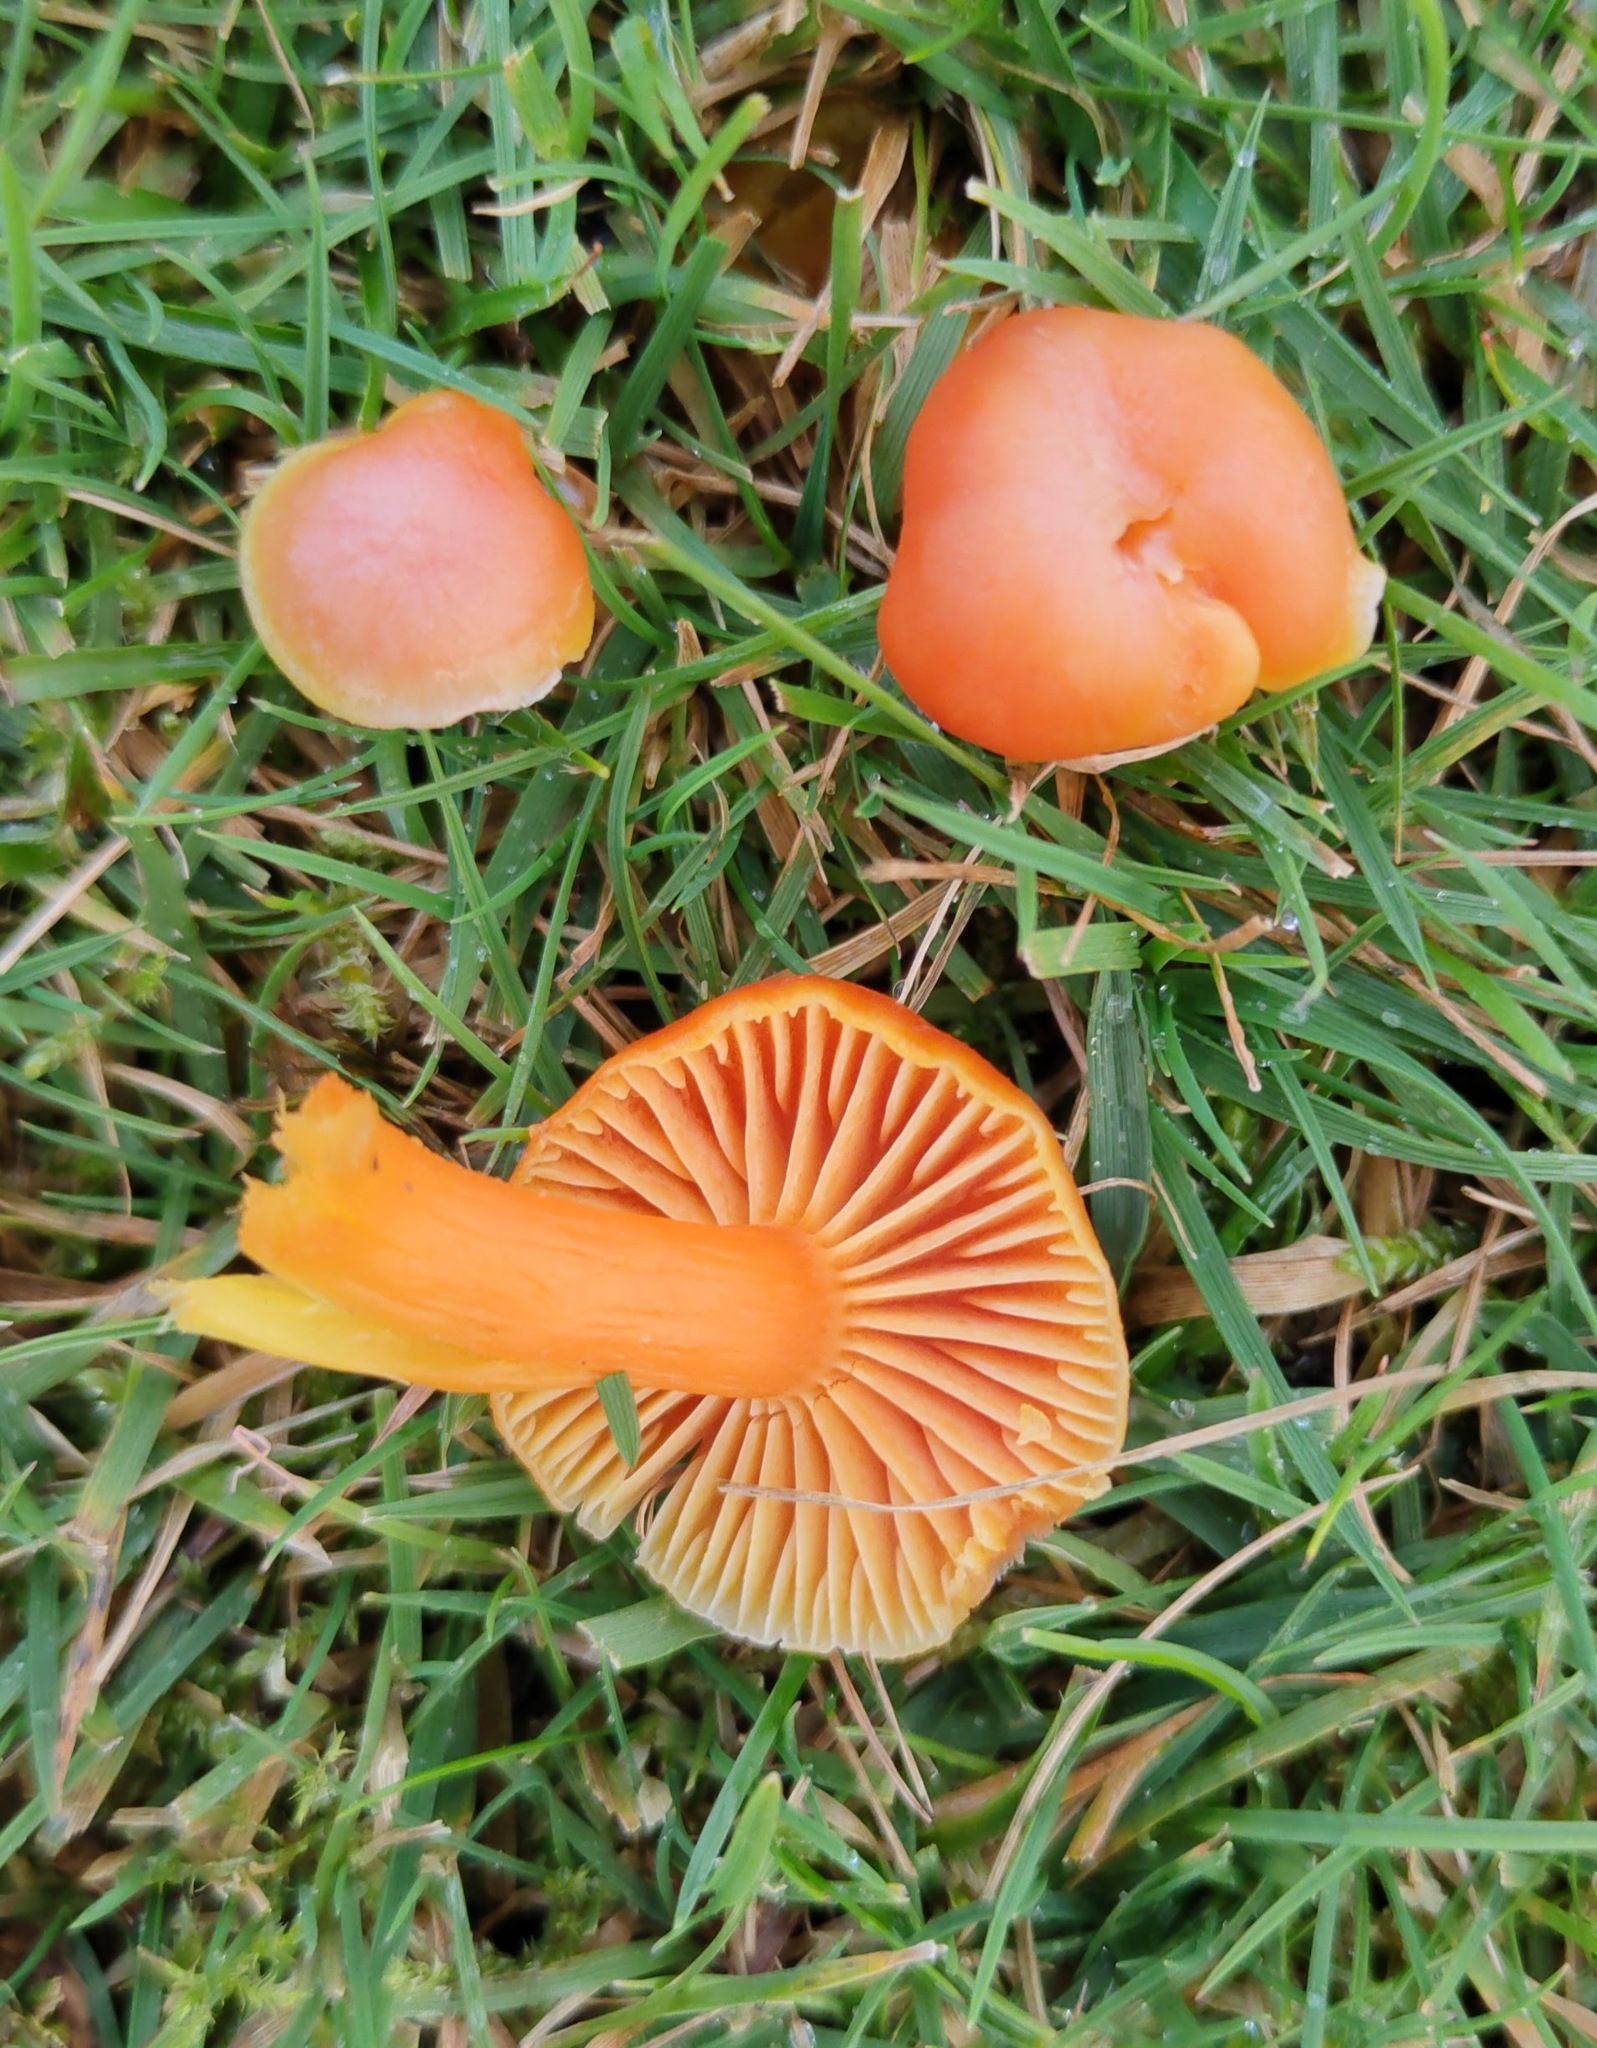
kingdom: Fungi
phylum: Basidiomycota
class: Agaricomycetes
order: Agaricales
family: Hygrophoraceae
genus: Hygrocybe
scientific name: Hygrocybe reidii
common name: Honey waxcap
